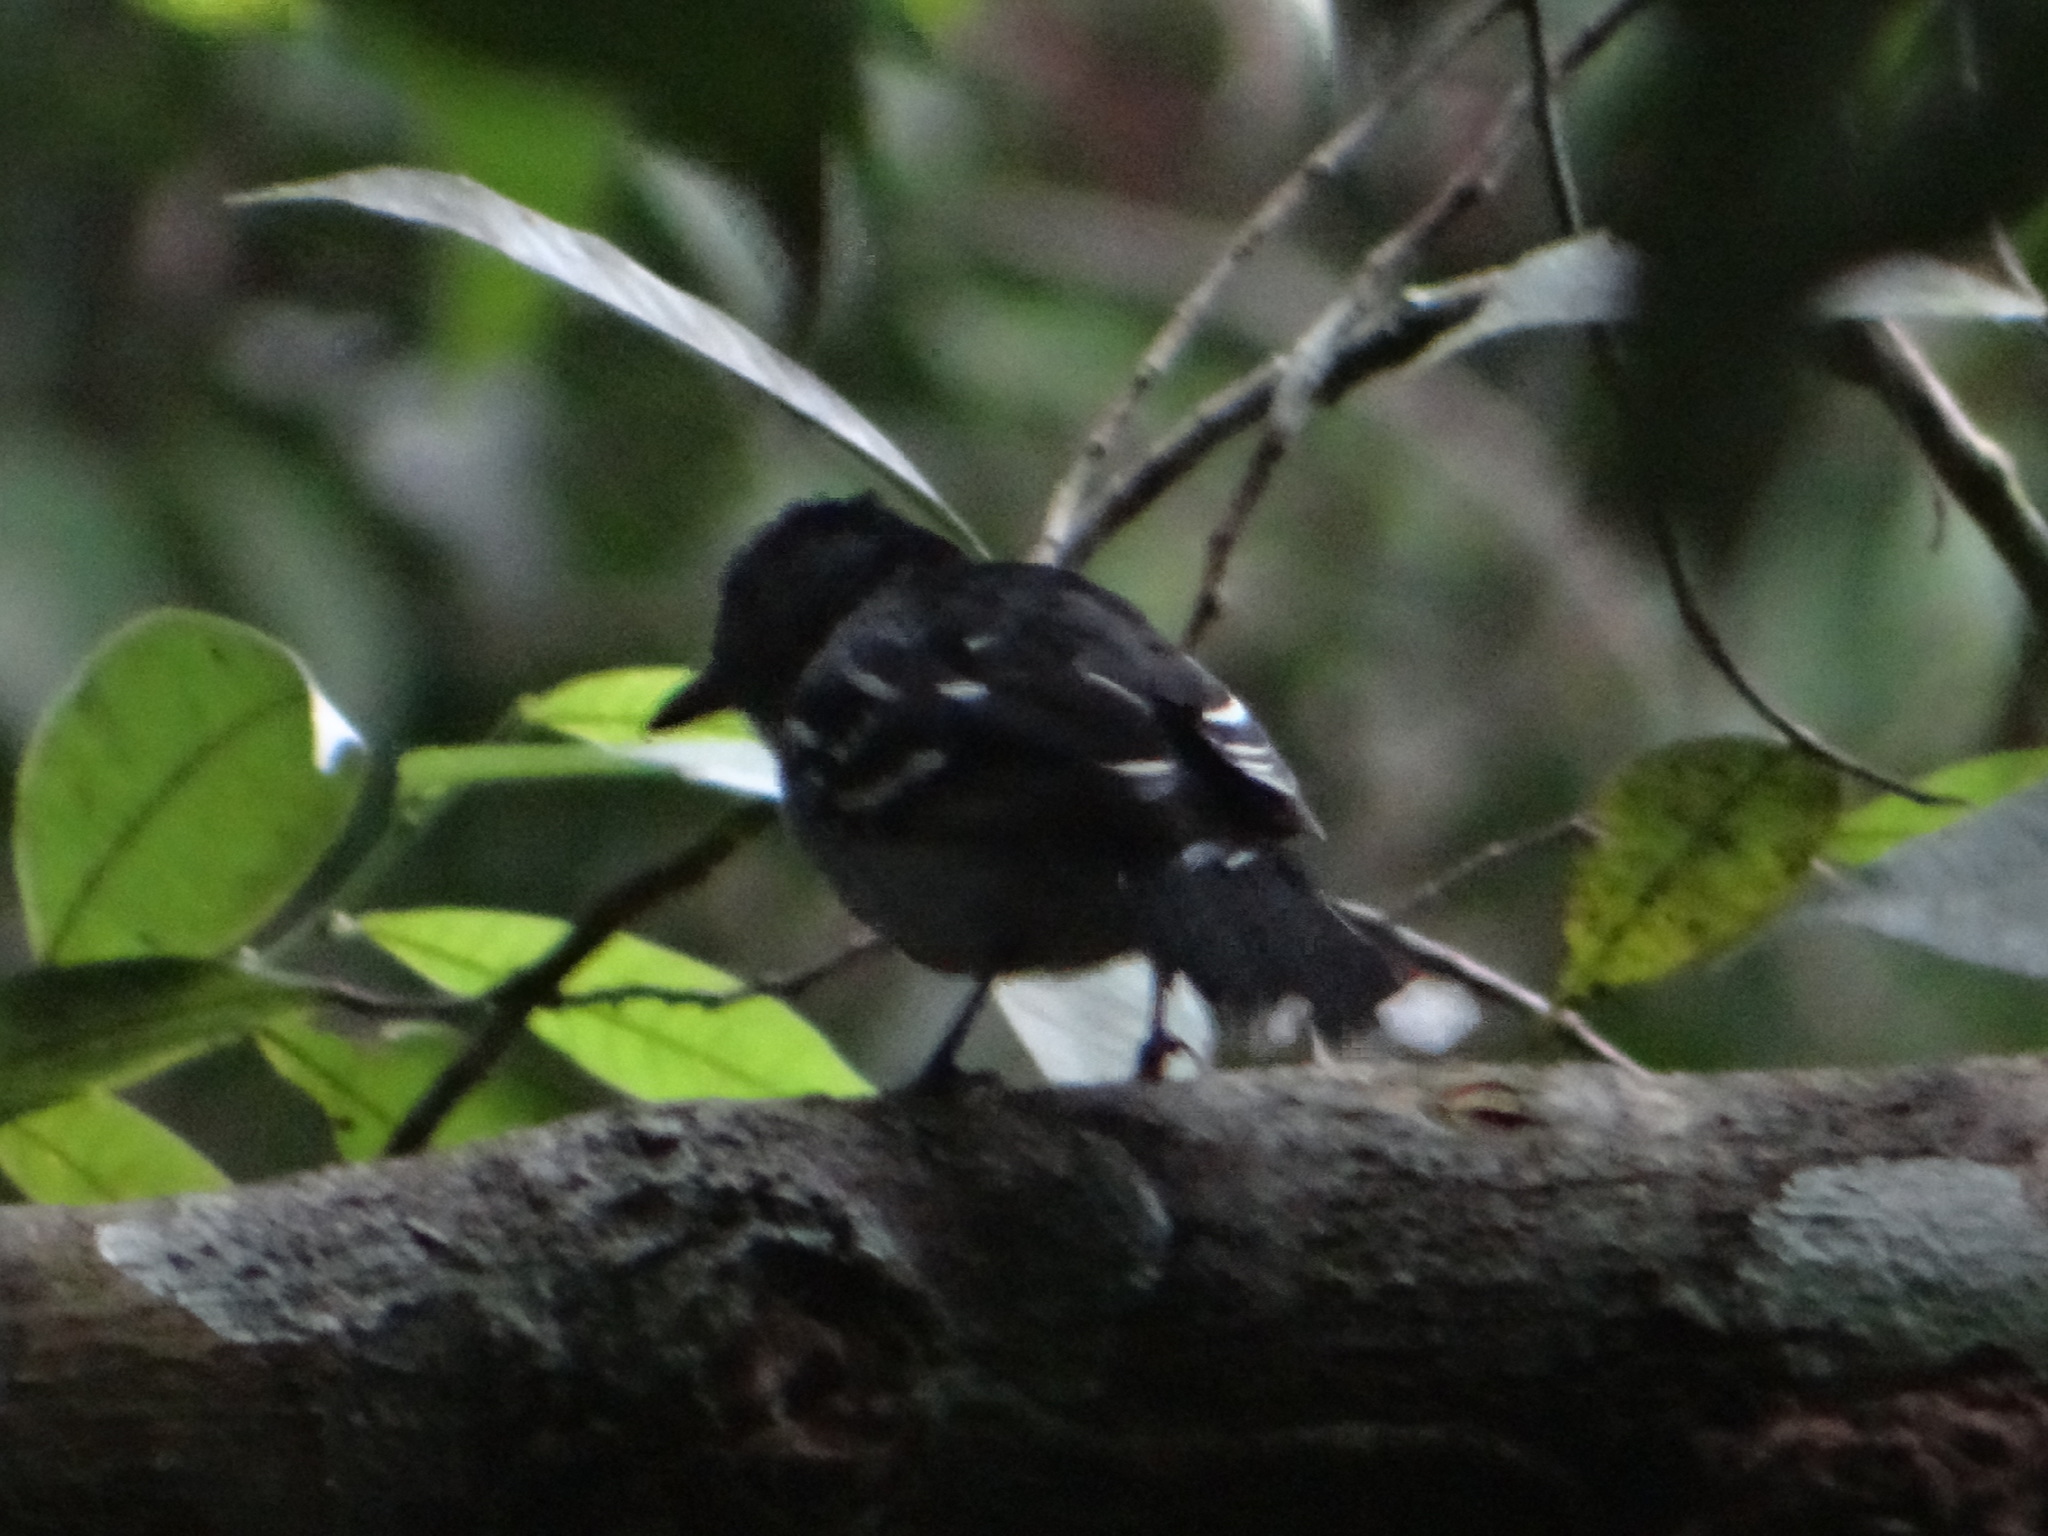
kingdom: Animalia
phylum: Chordata
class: Aves
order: Passeriformes
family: Thamnophilidae
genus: Thamnophilus
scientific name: Thamnophilus amazonicus
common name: Amazonian antshrike
